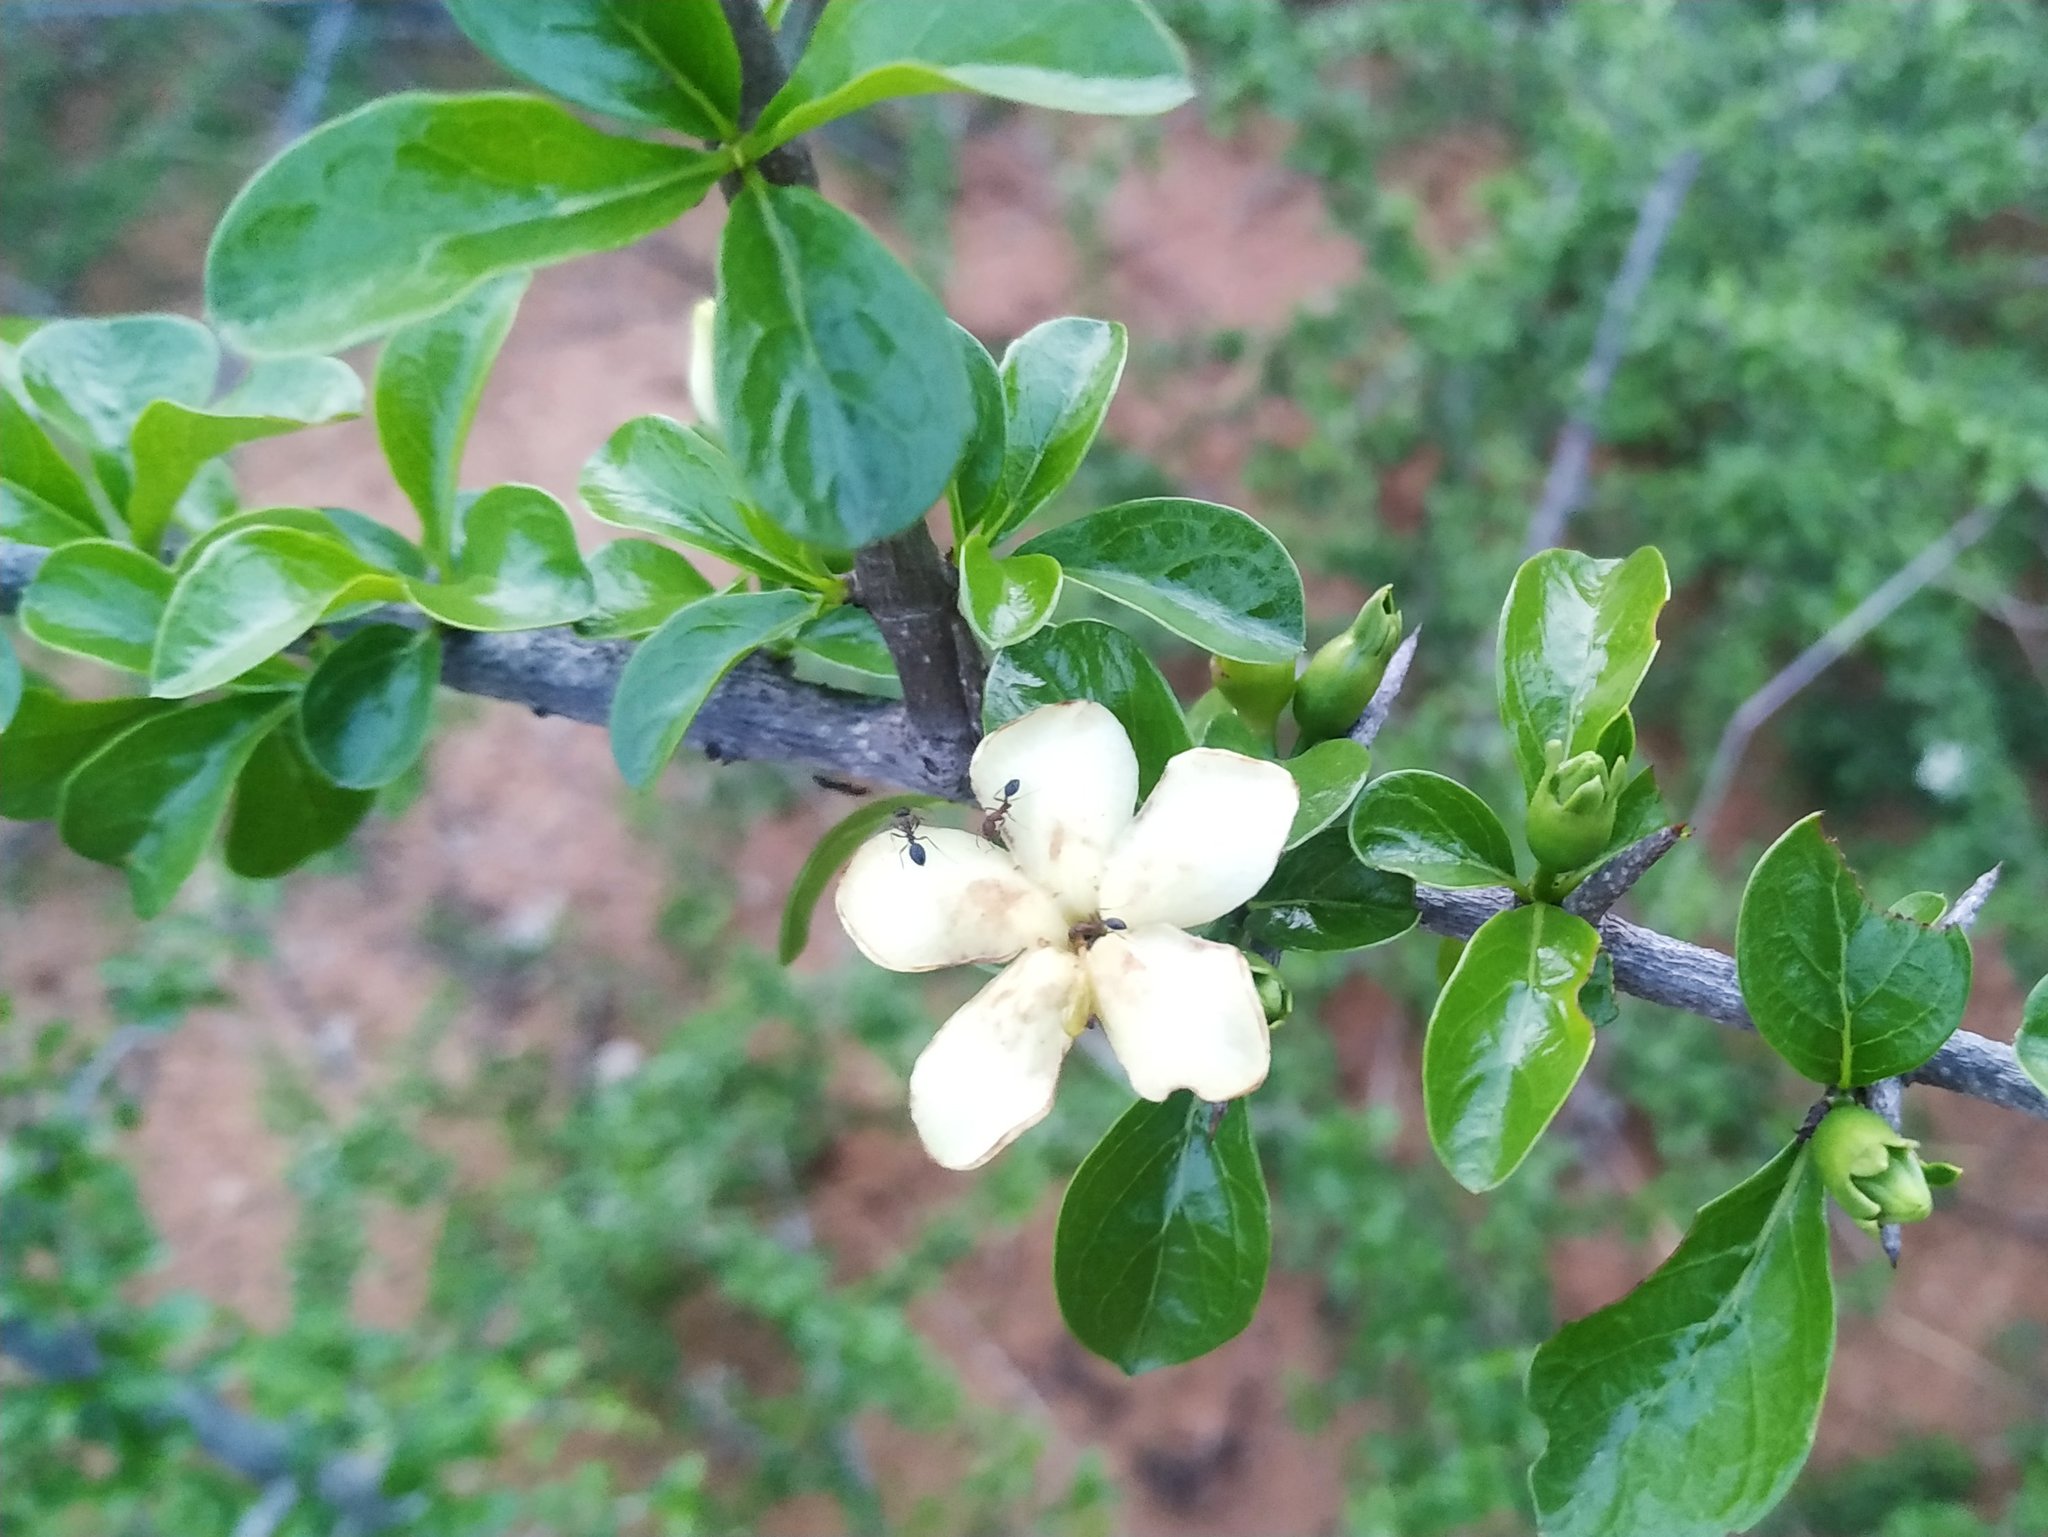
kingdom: Plantae
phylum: Tracheophyta
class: Magnoliopsida
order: Gentianales
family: Rubiaceae
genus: Catunaregam
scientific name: Catunaregam spinosa
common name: Emetic-nut
